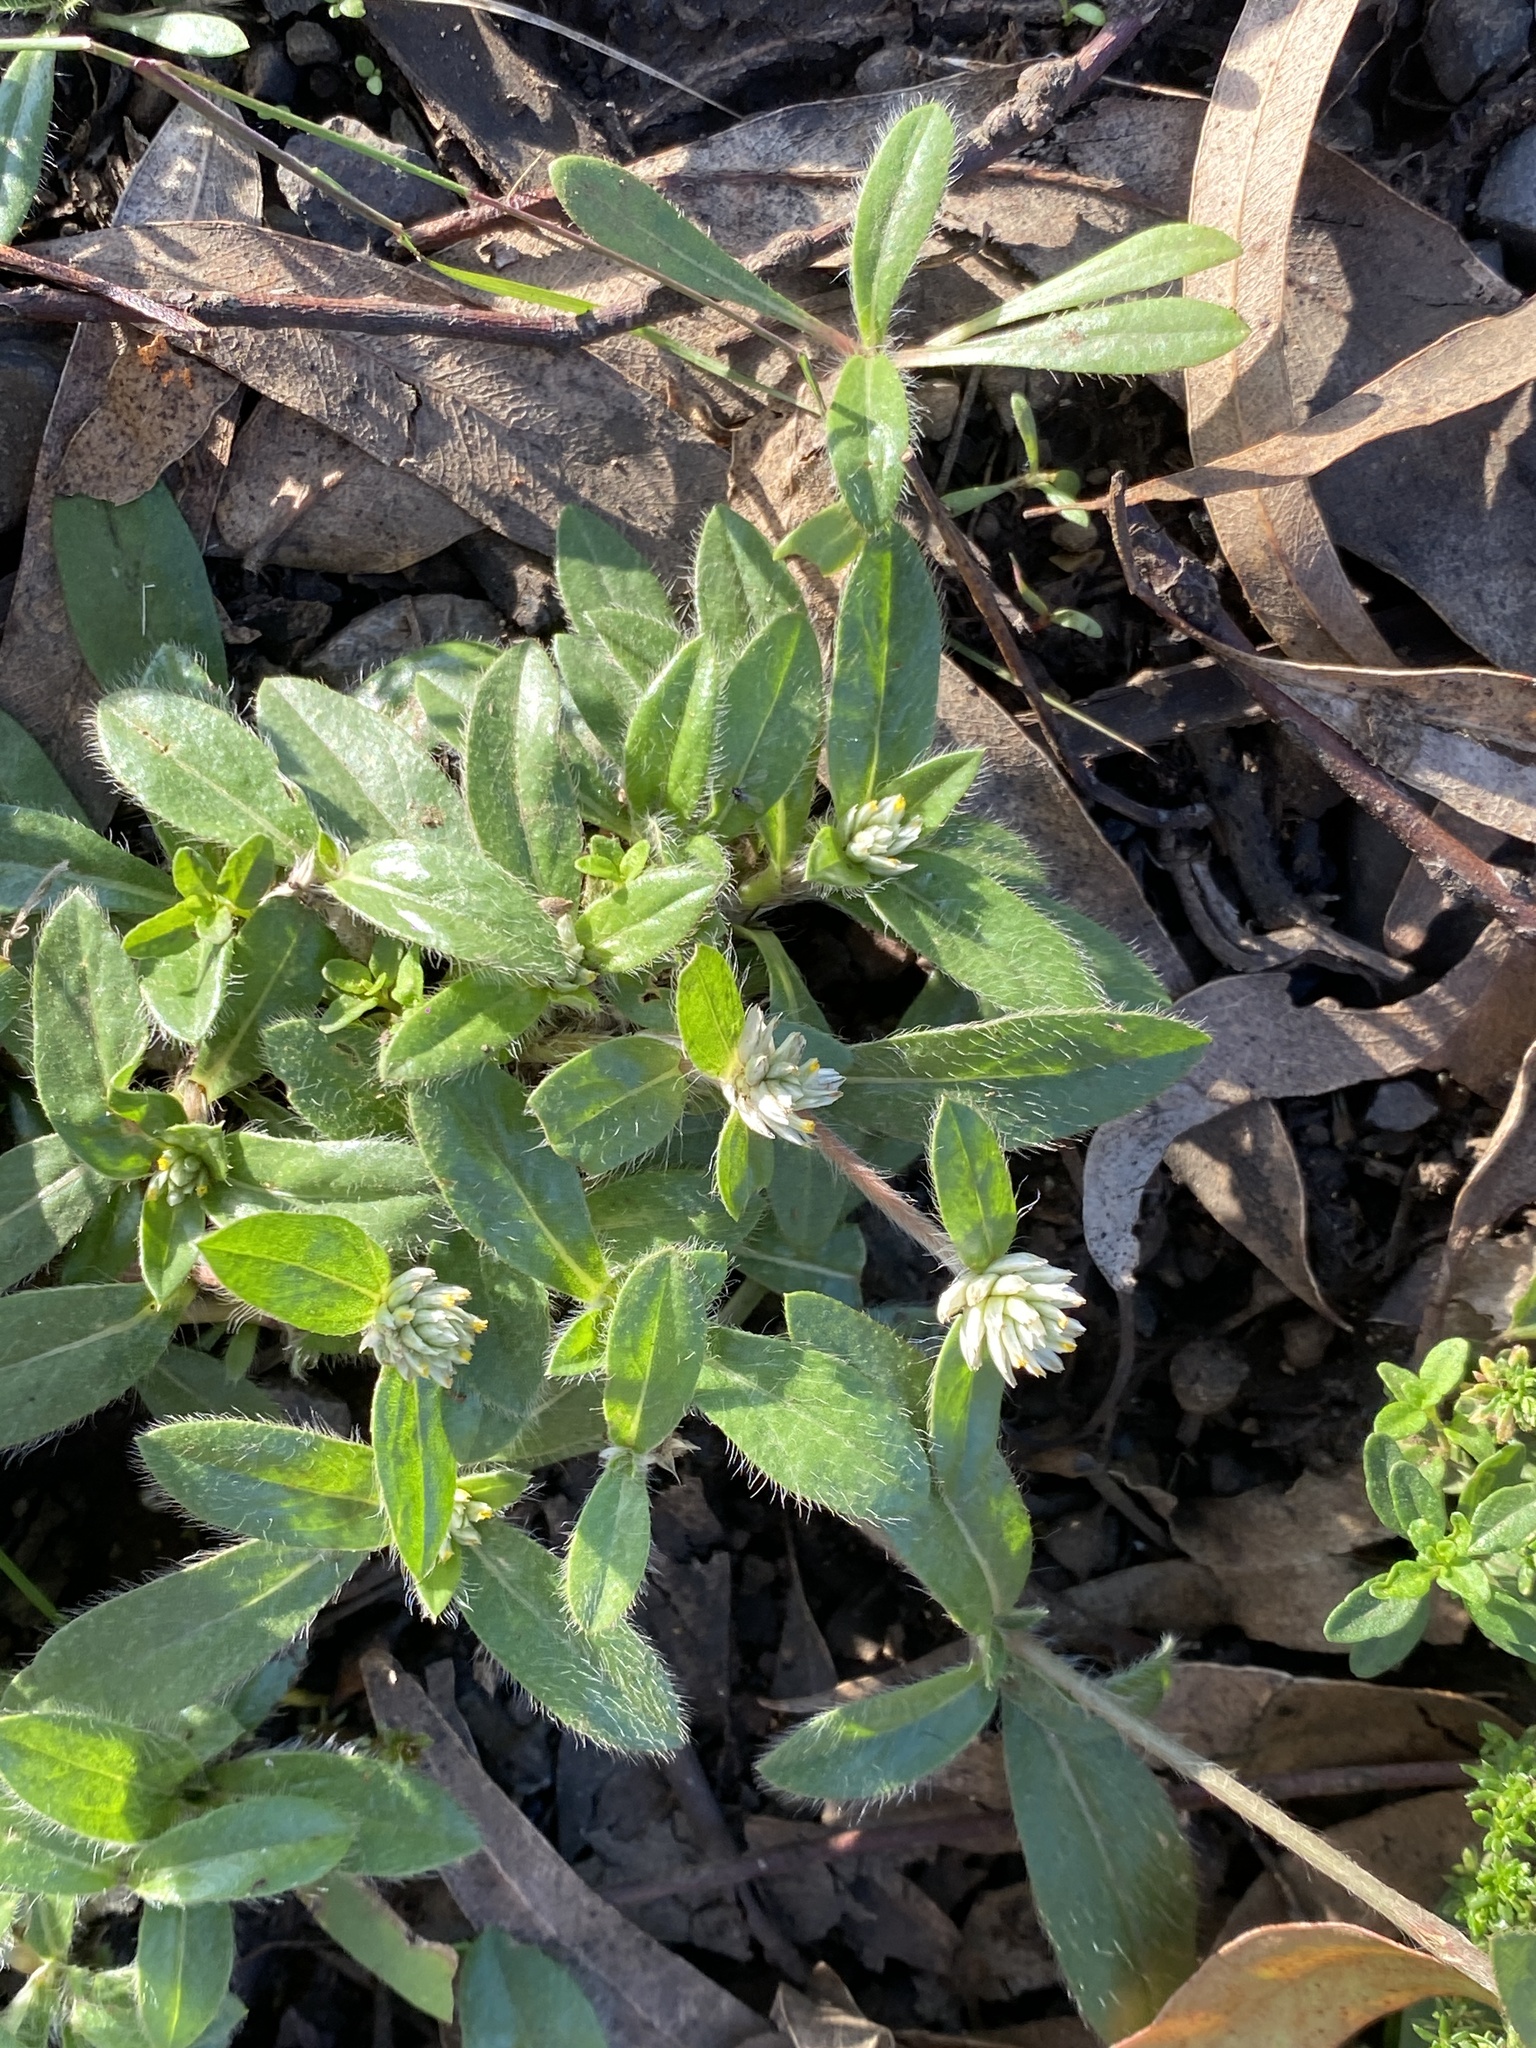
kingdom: Plantae
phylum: Tracheophyta
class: Magnoliopsida
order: Caryophyllales
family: Amaranthaceae
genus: Gomphrena
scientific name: Gomphrena celosioides
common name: Gomphrena-weed
